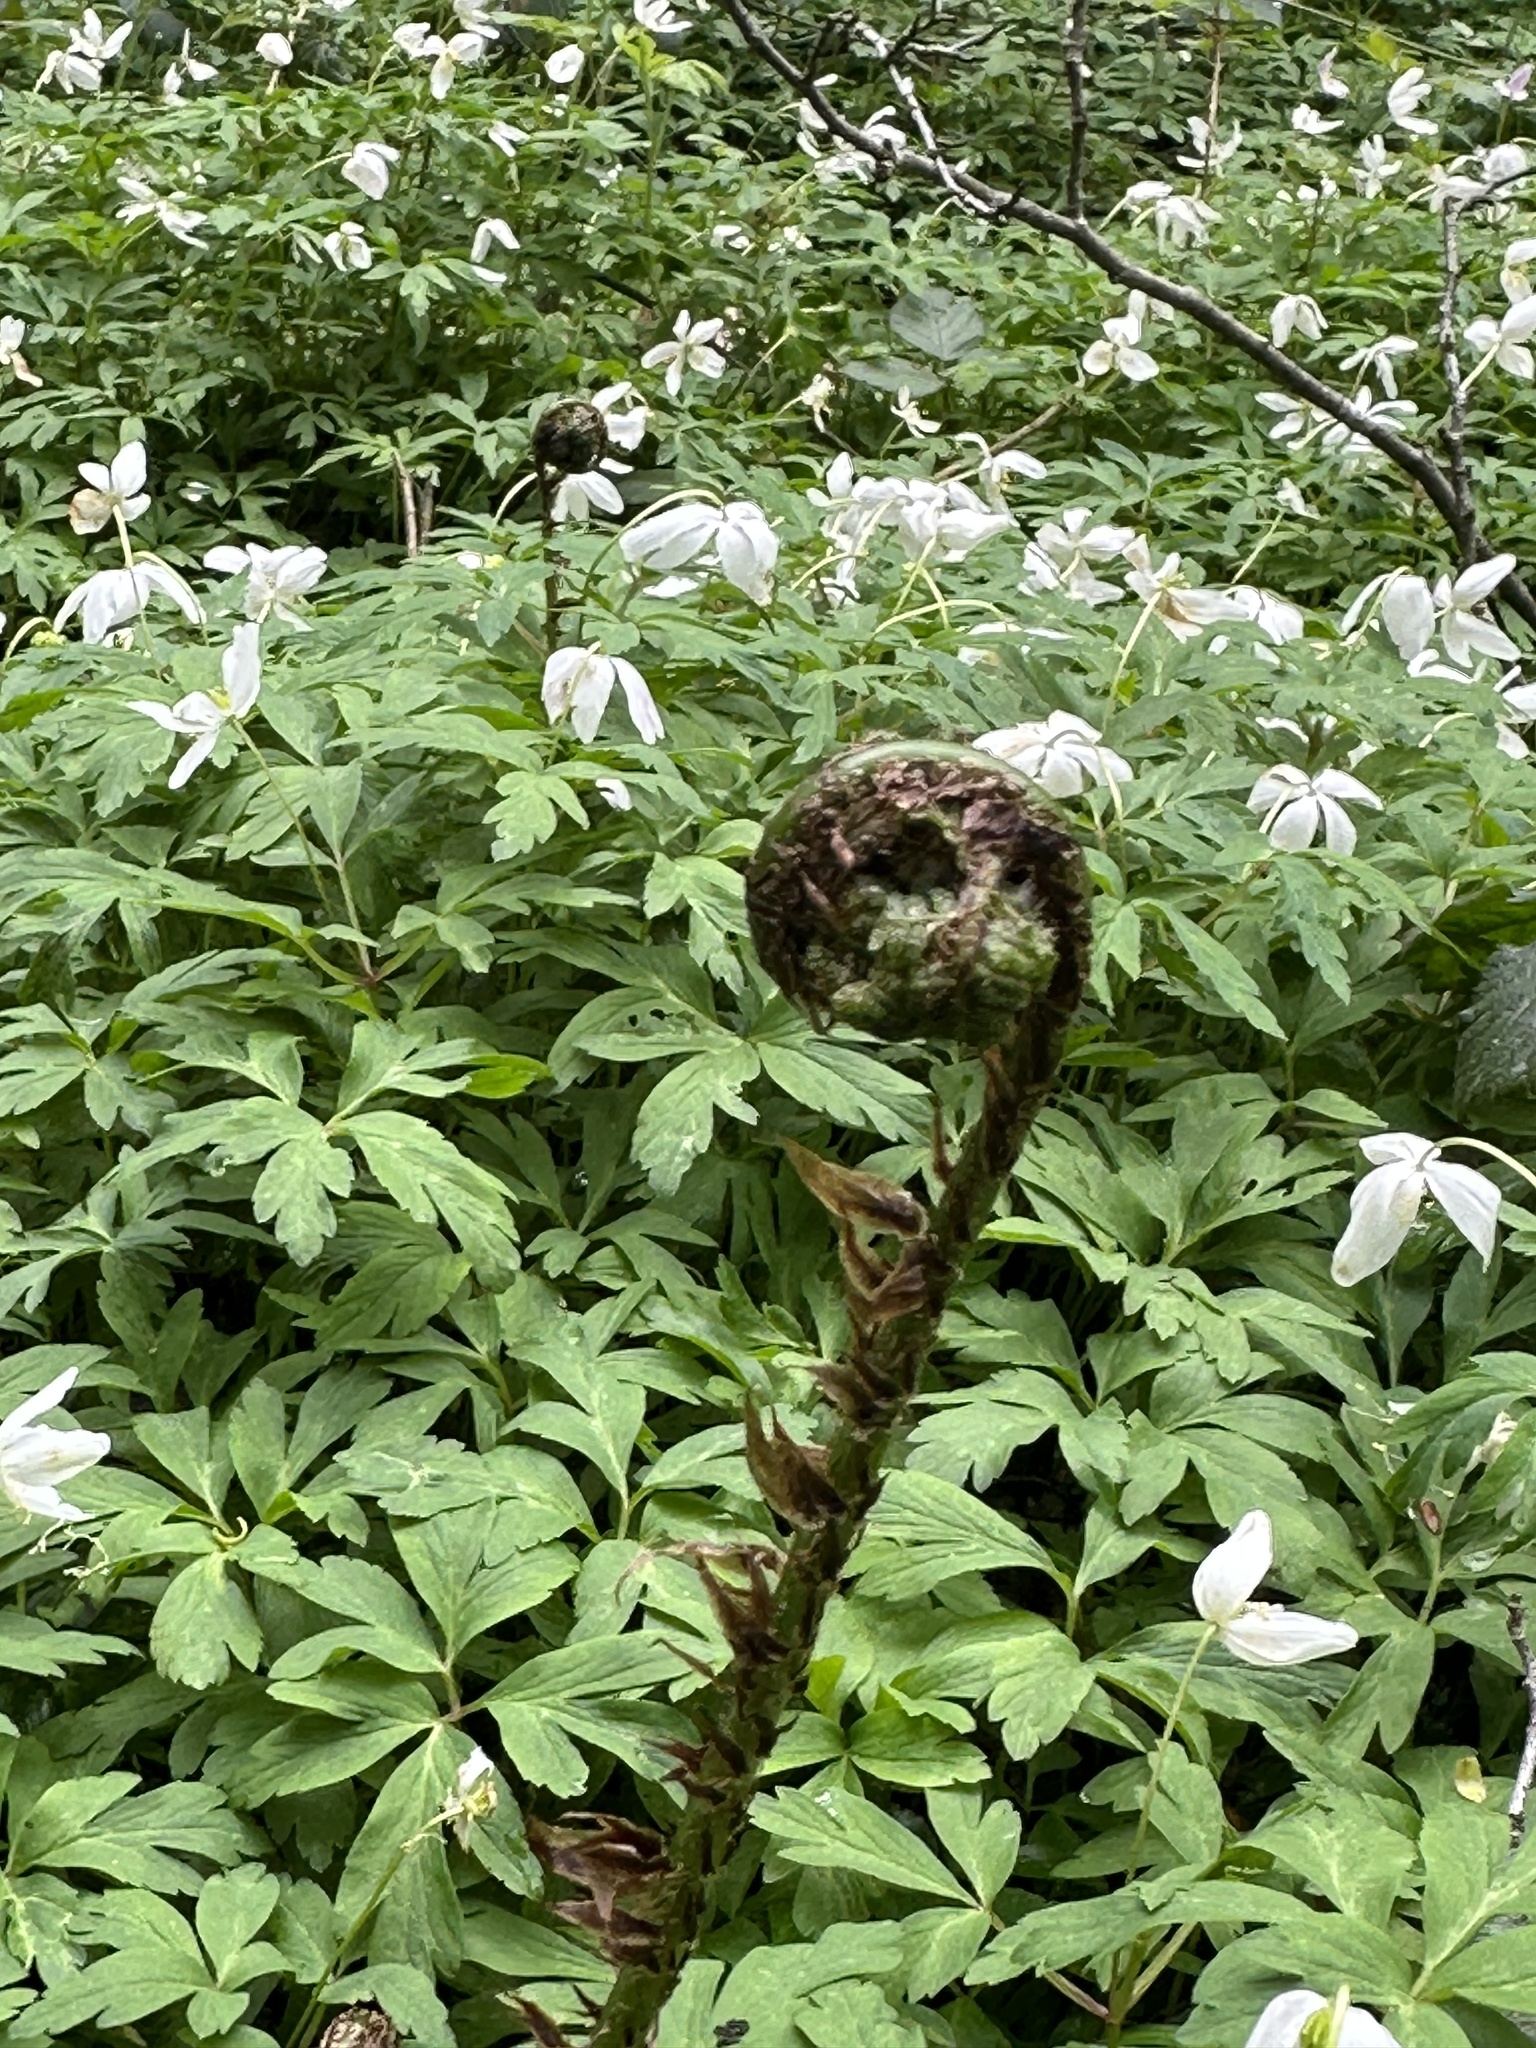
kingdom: Plantae
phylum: Tracheophyta
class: Polypodiopsida
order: Polypodiales
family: Dryopteridaceae
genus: Dryopteris
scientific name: Dryopteris dilatata
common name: Broad buckler-fern
